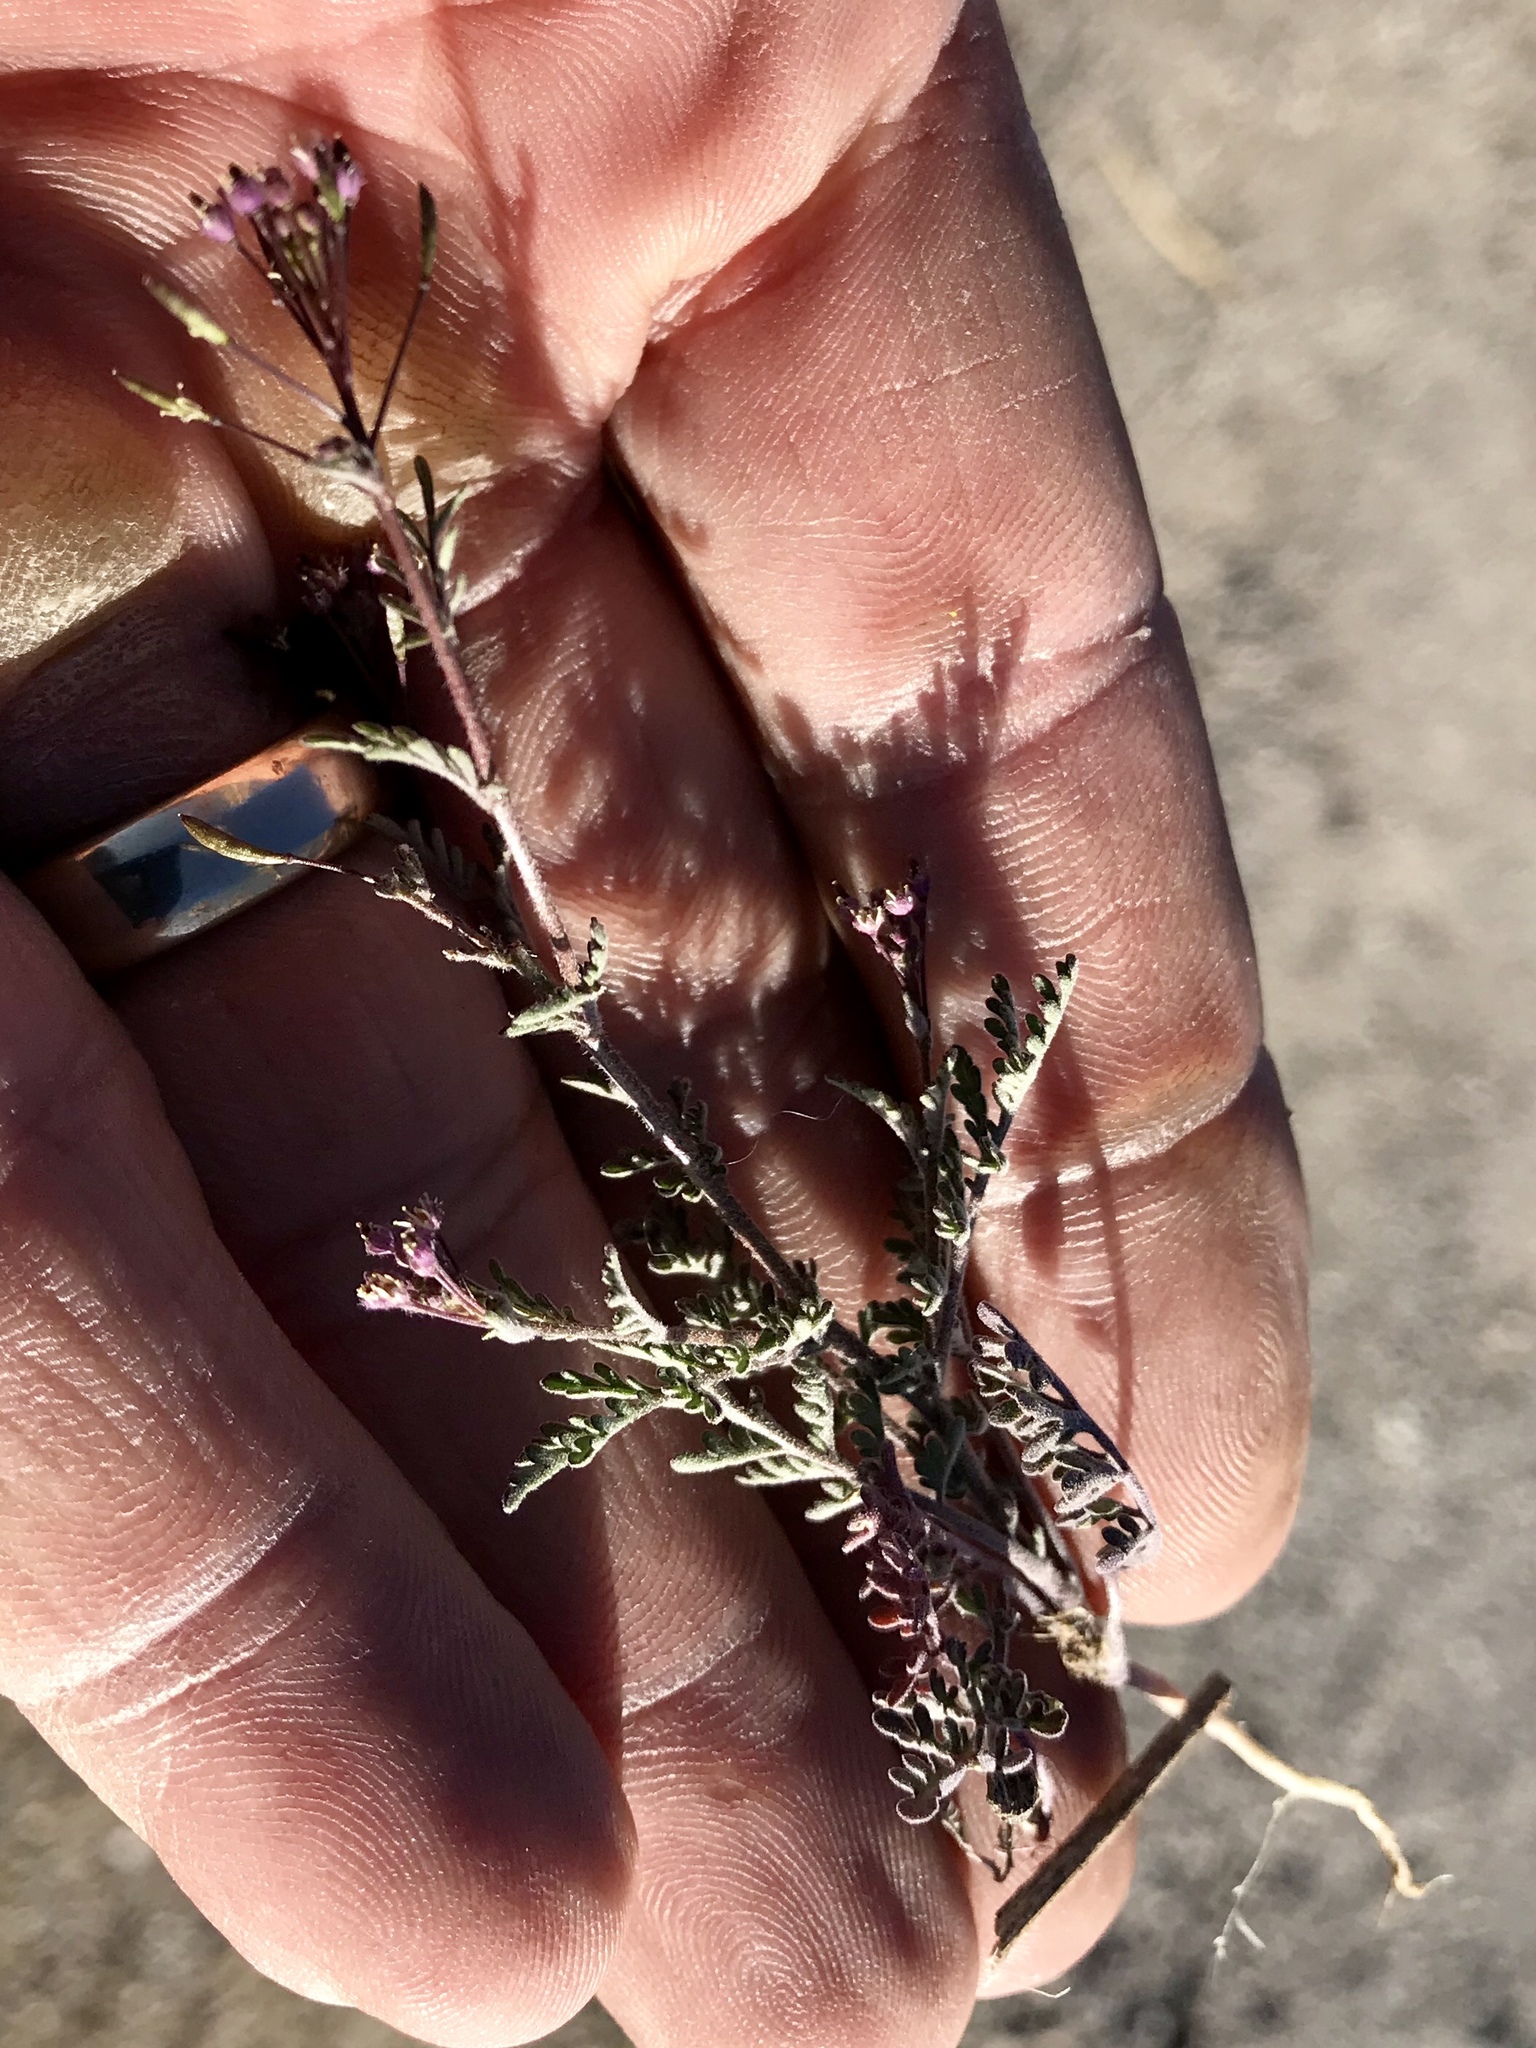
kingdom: Plantae
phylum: Tracheophyta
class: Magnoliopsida
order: Brassicales
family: Brassicaceae
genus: Descurainia
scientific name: Descurainia pinnata
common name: Western tansy mustard
